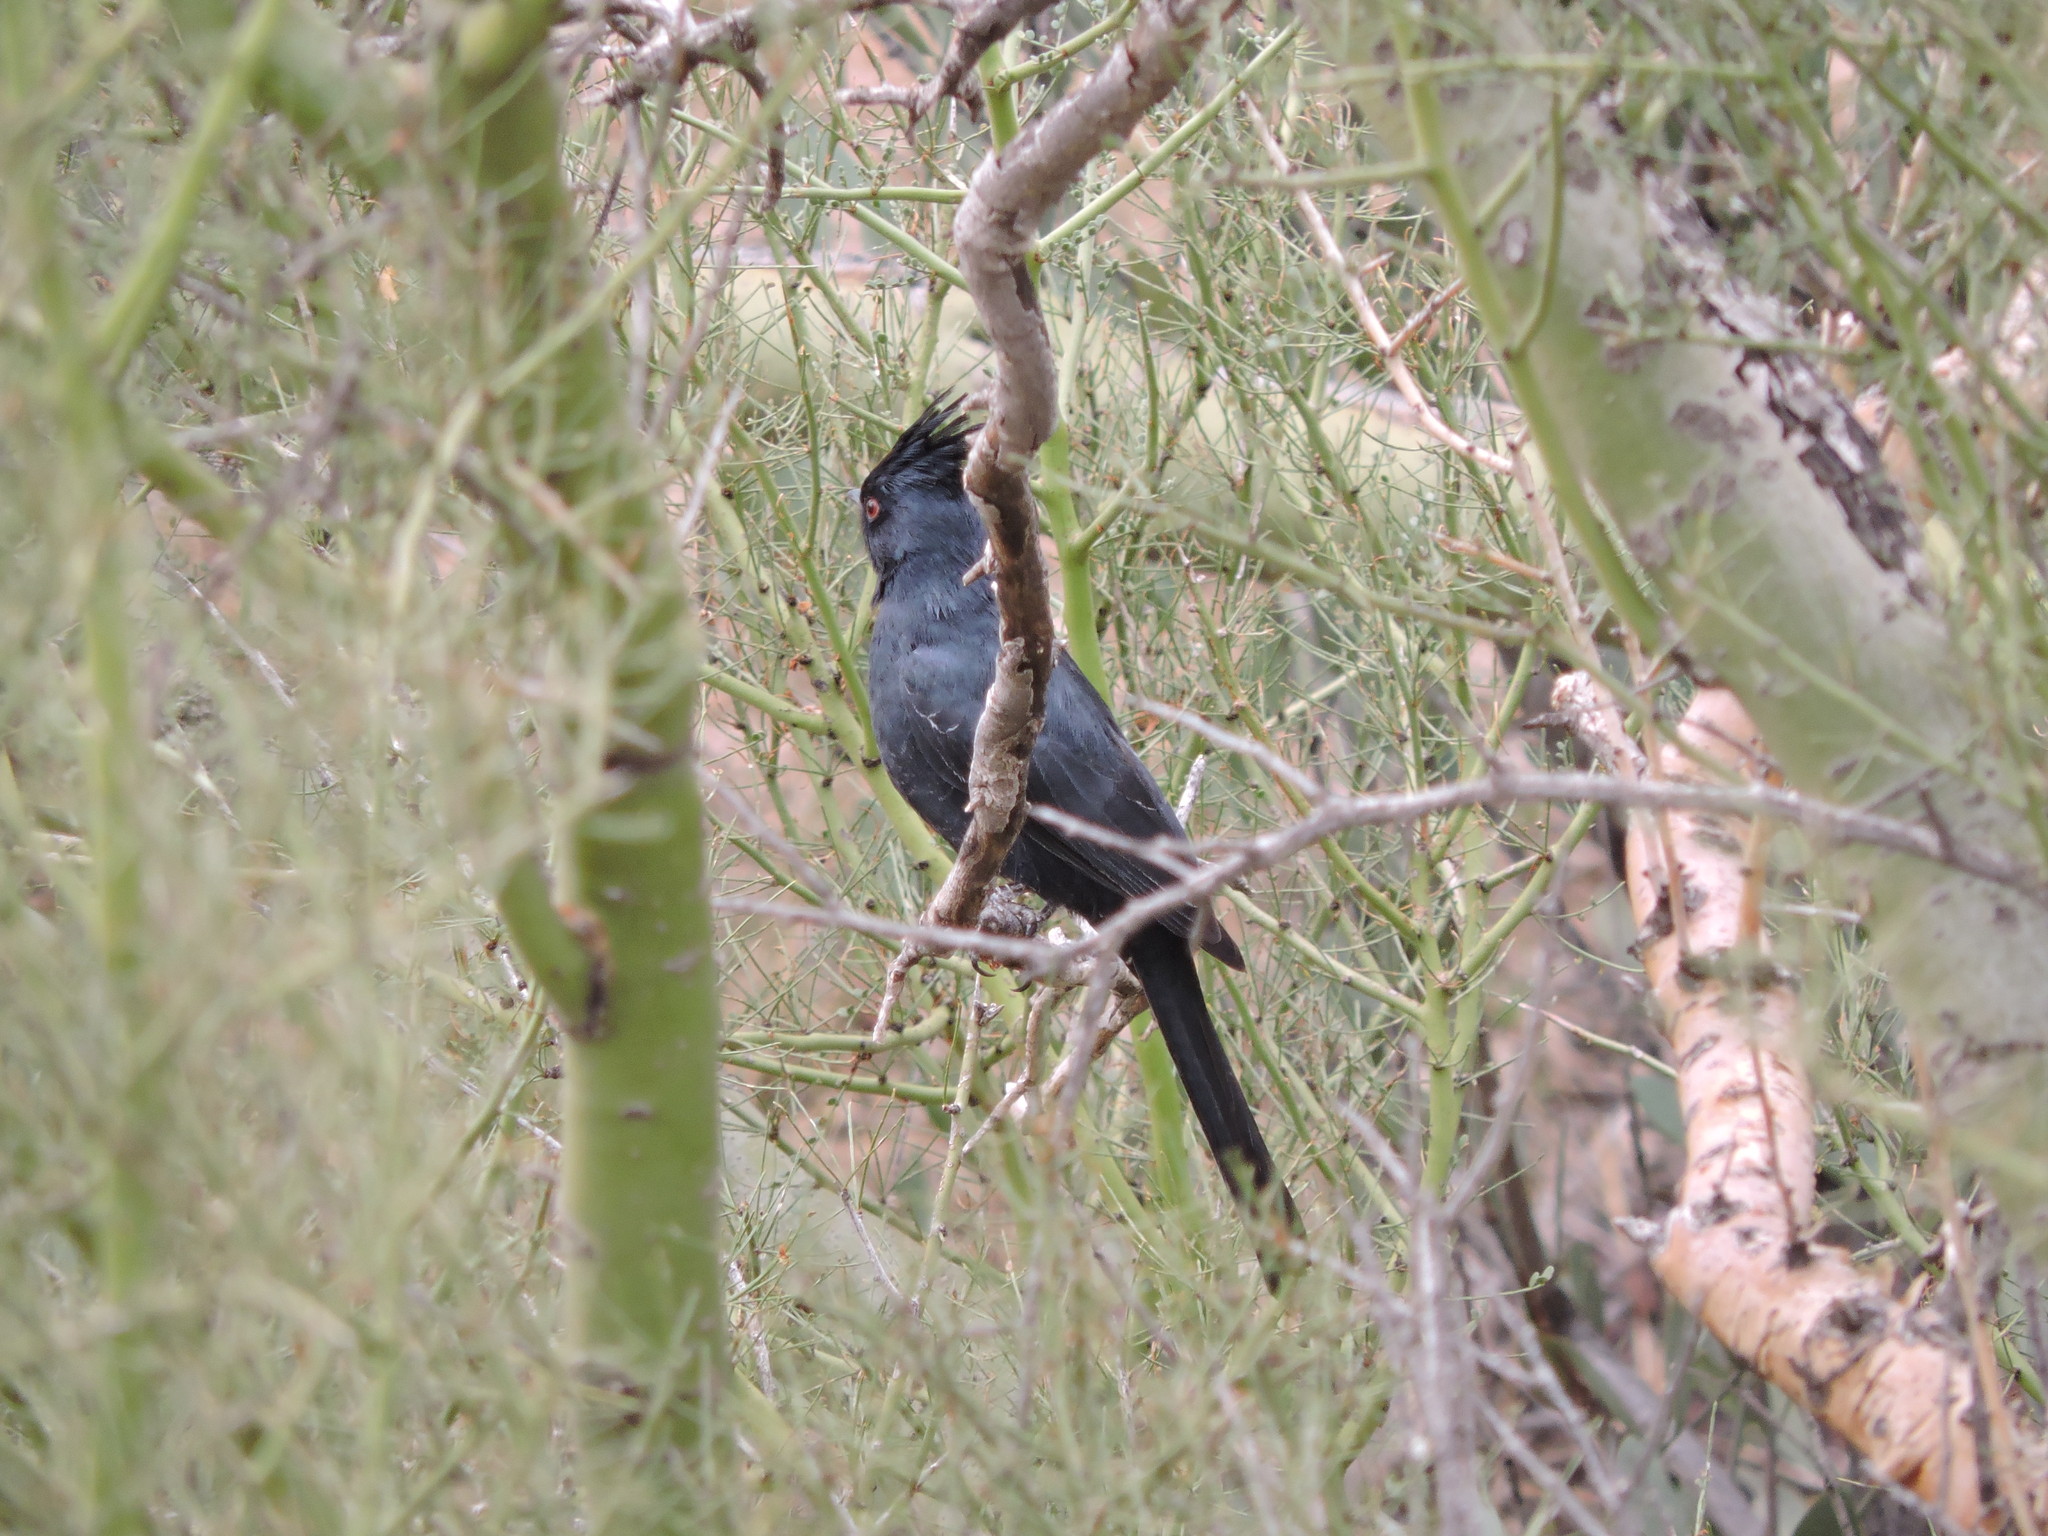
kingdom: Animalia
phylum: Chordata
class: Aves
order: Passeriformes
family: Ptilogonatidae
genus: Phainopepla
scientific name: Phainopepla nitens
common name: Phainopepla
